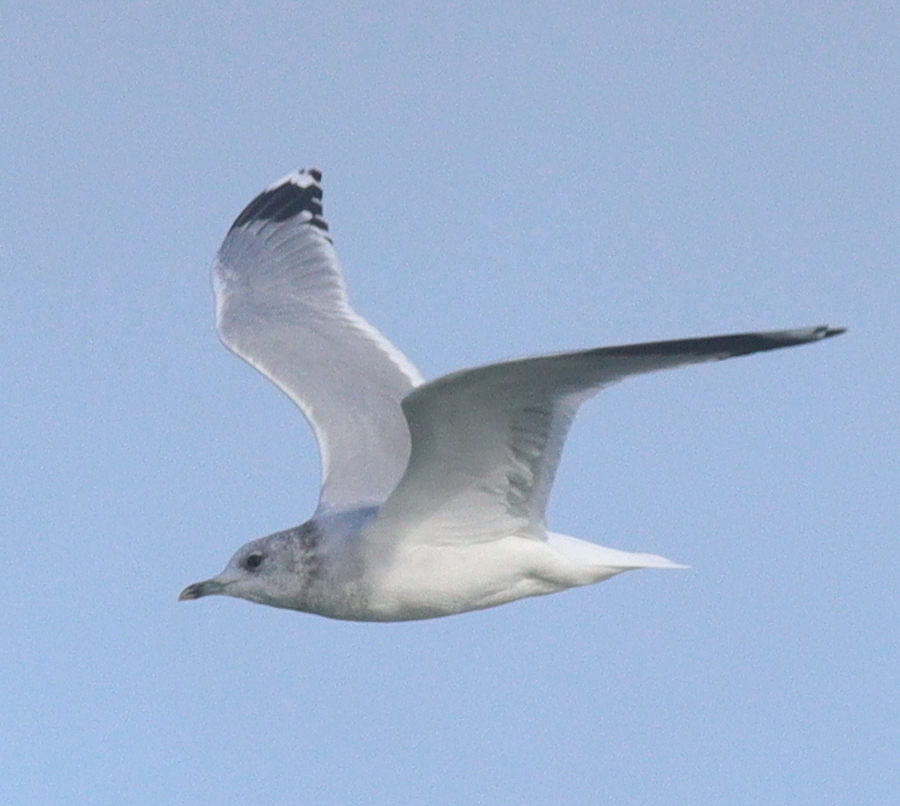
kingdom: Animalia
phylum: Chordata
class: Aves
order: Charadriiformes
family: Laridae
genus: Larus
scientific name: Larus canus
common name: Mew gull
